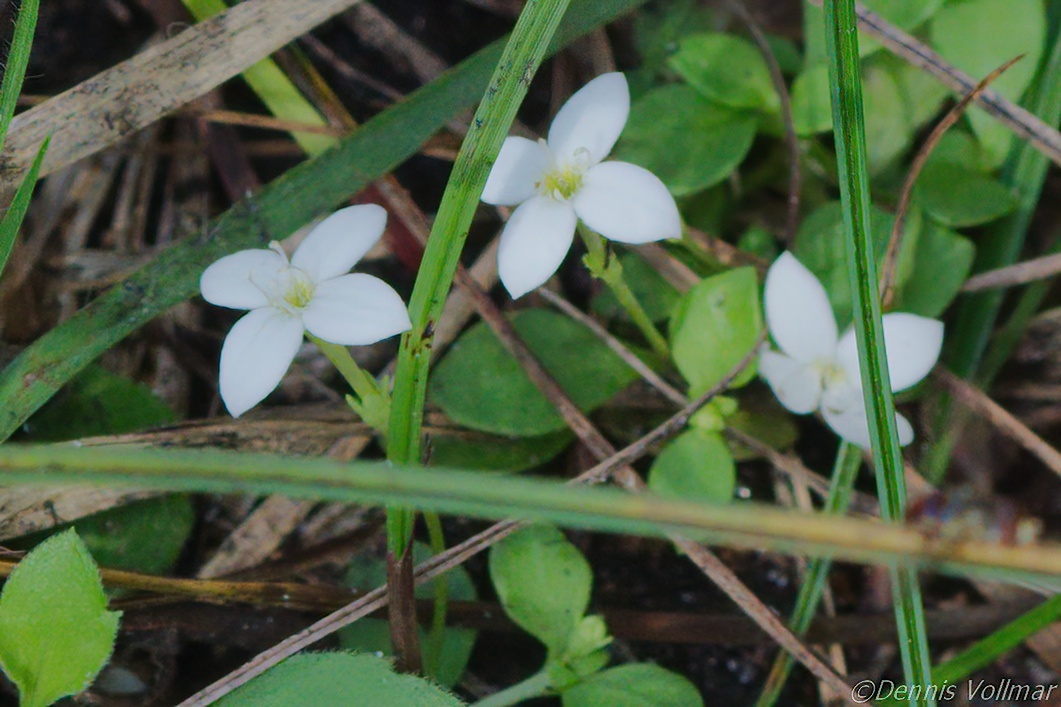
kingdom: Plantae
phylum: Tracheophyta
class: Magnoliopsida
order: Gentianales
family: Rubiaceae
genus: Houstonia
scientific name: Houstonia procumbens
